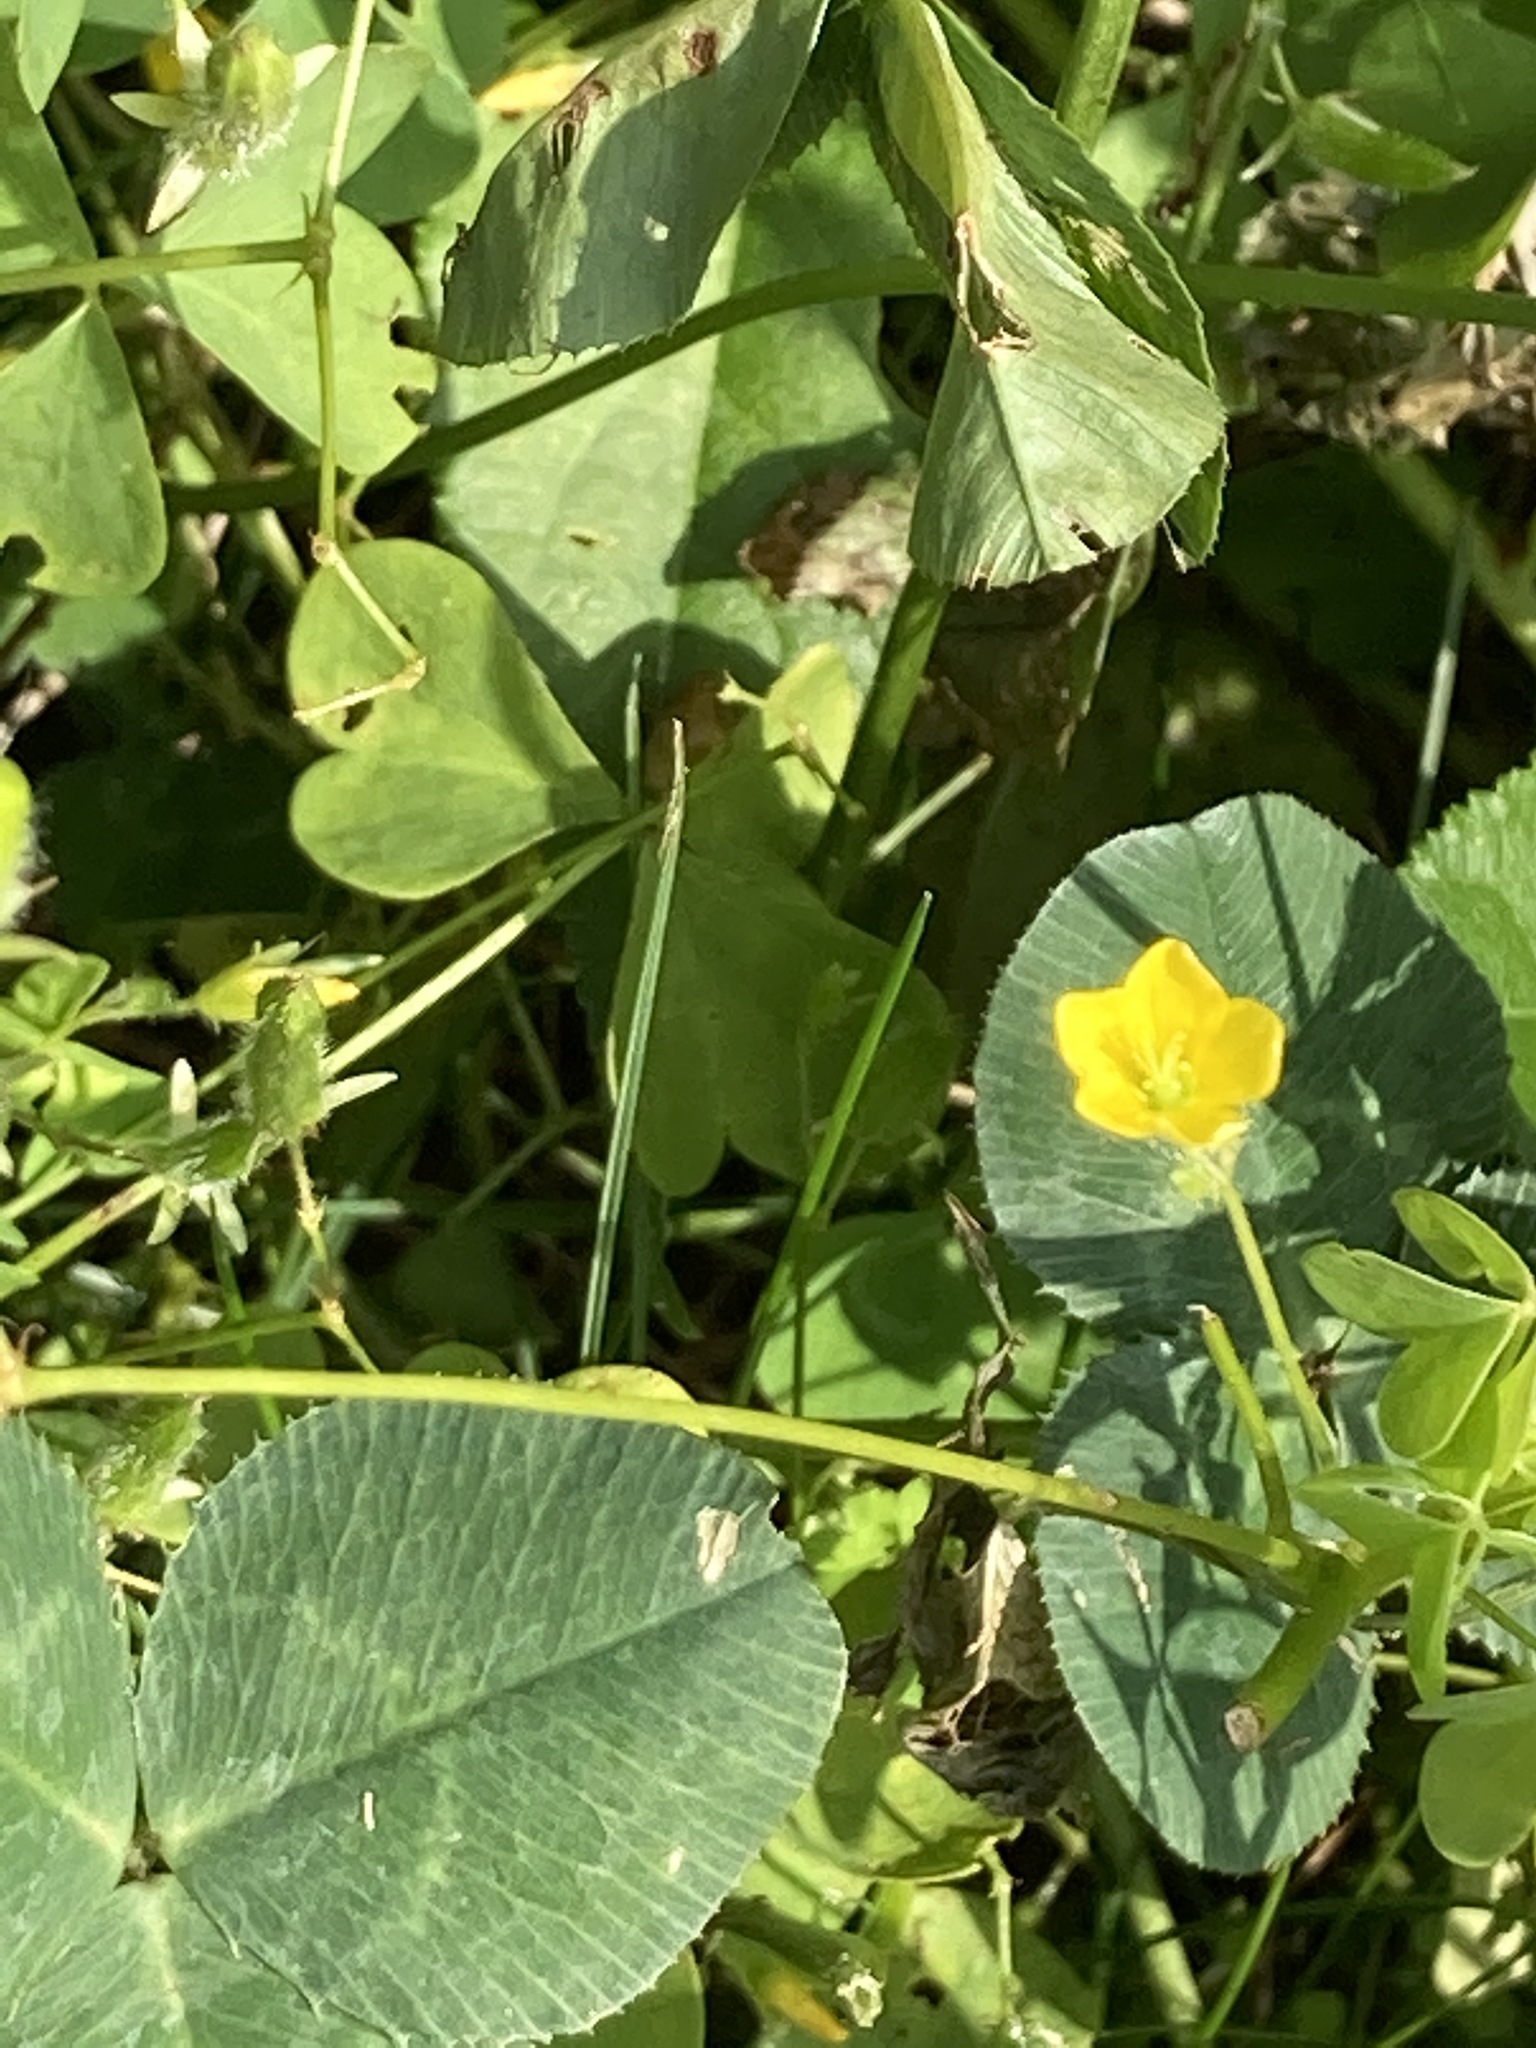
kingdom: Plantae
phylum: Tracheophyta
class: Magnoliopsida
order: Oxalidales
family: Oxalidaceae
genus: Oxalis
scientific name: Oxalis corniculata
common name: Procumbent yellow-sorrel
